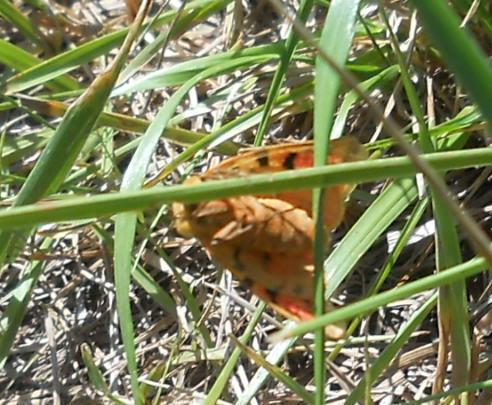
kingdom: Animalia
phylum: Arthropoda
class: Insecta
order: Lepidoptera
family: Erebidae
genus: Rhyparia
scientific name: Rhyparia purpurata
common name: Purple tiger
